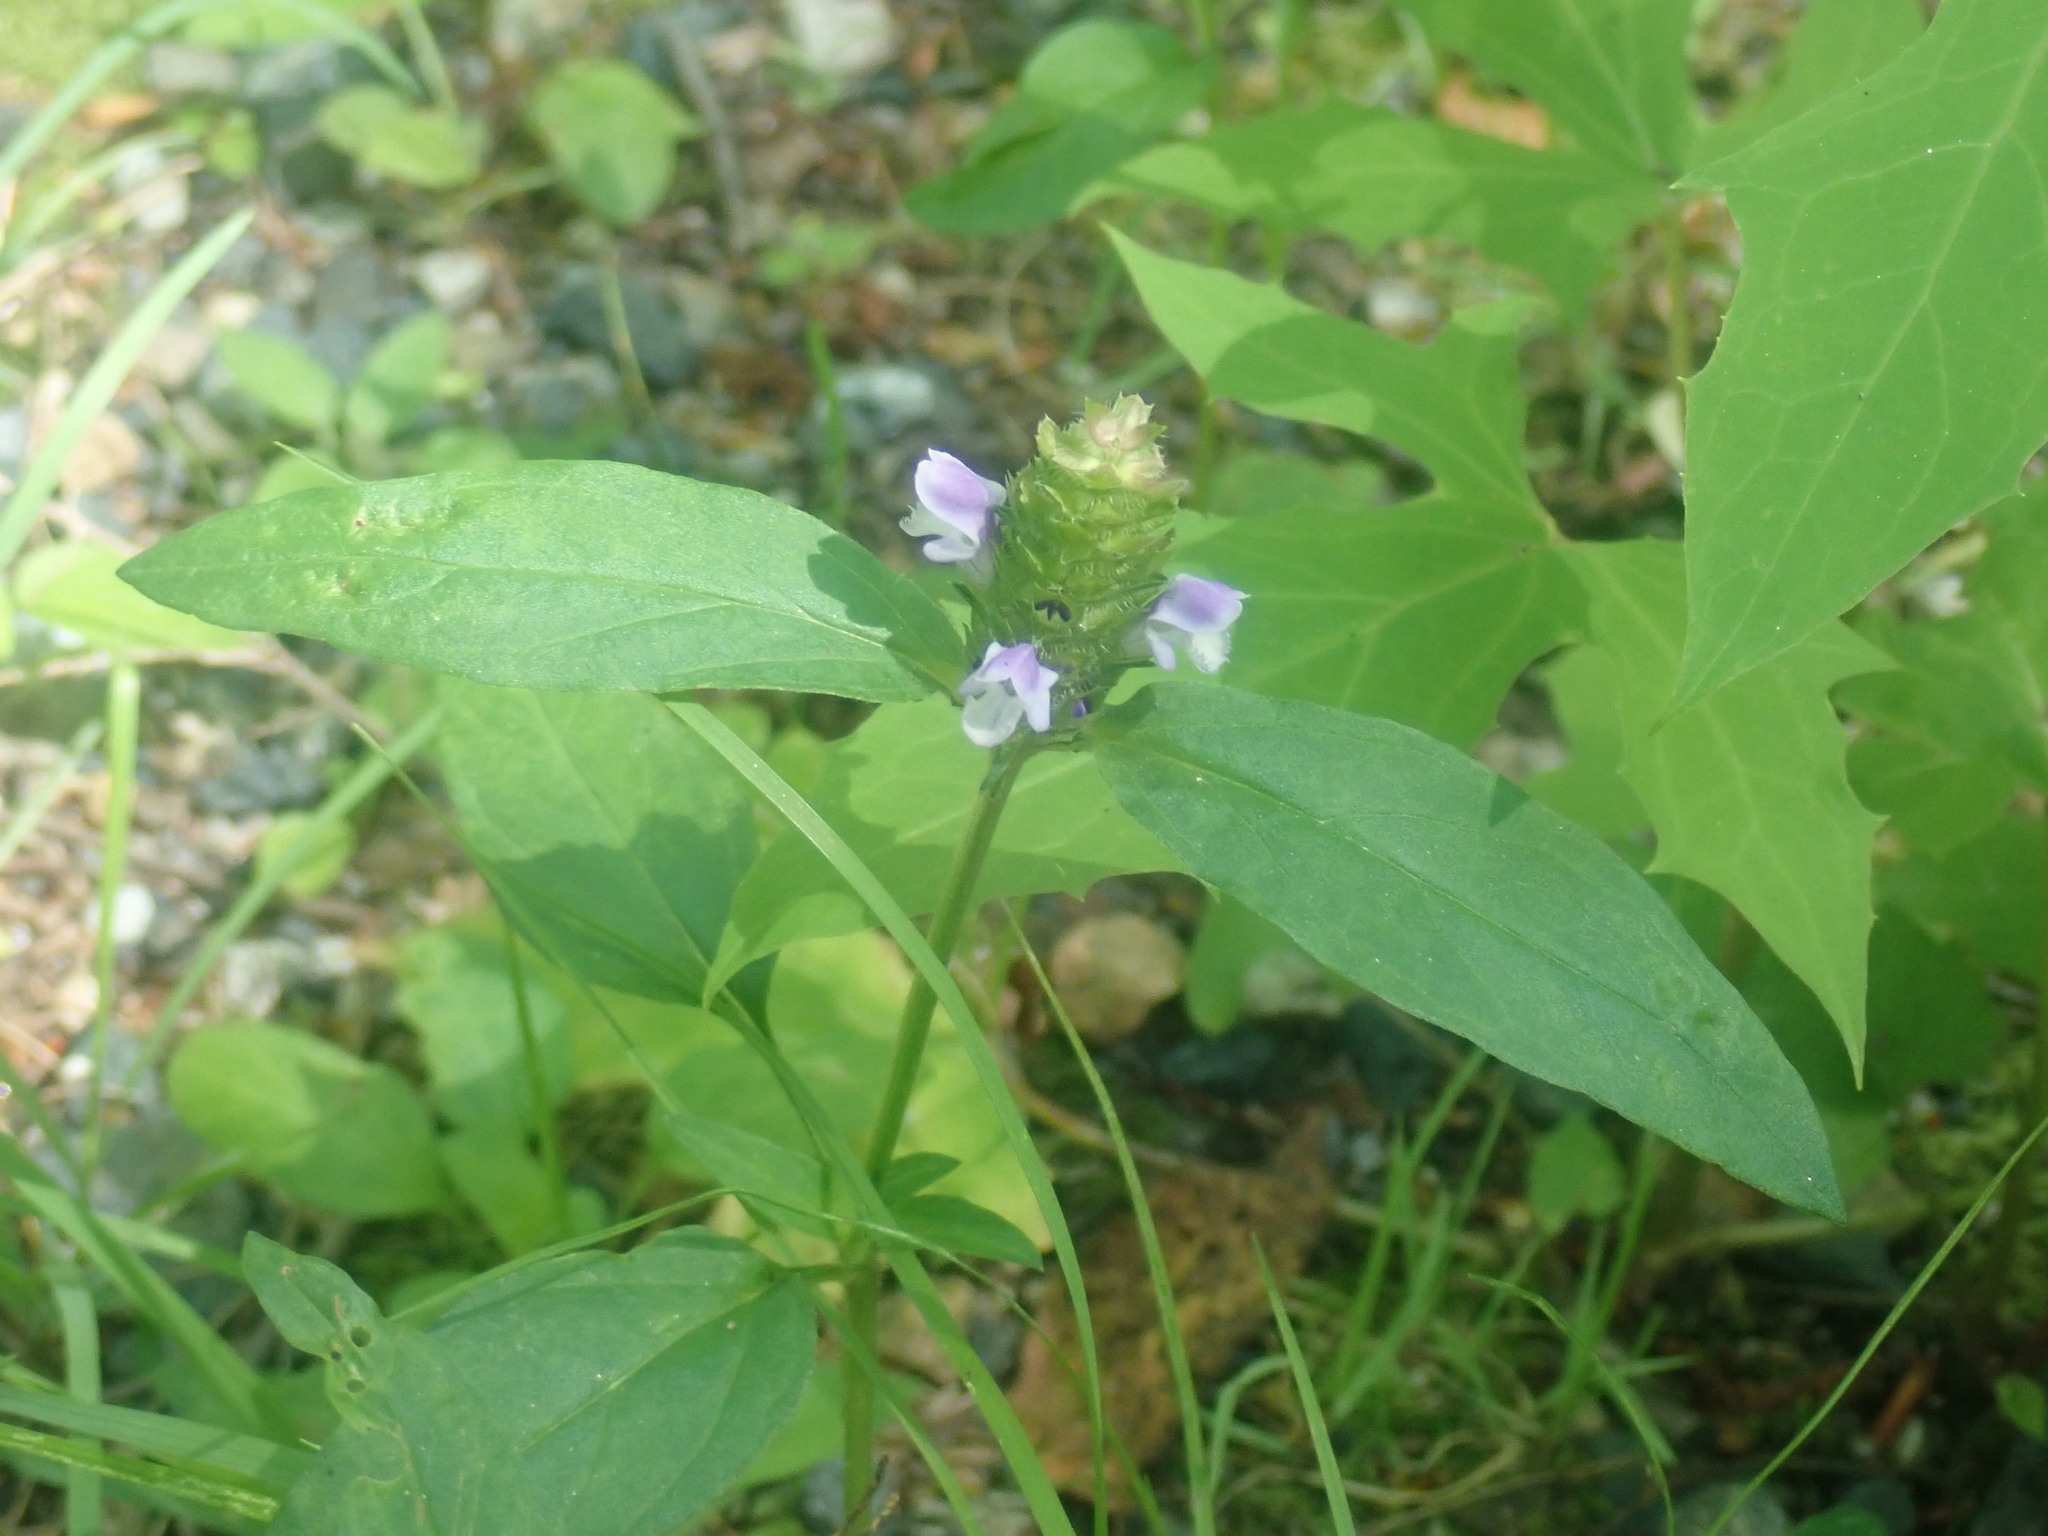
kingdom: Plantae
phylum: Tracheophyta
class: Magnoliopsida
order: Lamiales
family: Lamiaceae
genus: Prunella
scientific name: Prunella vulgaris
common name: Heal-all
